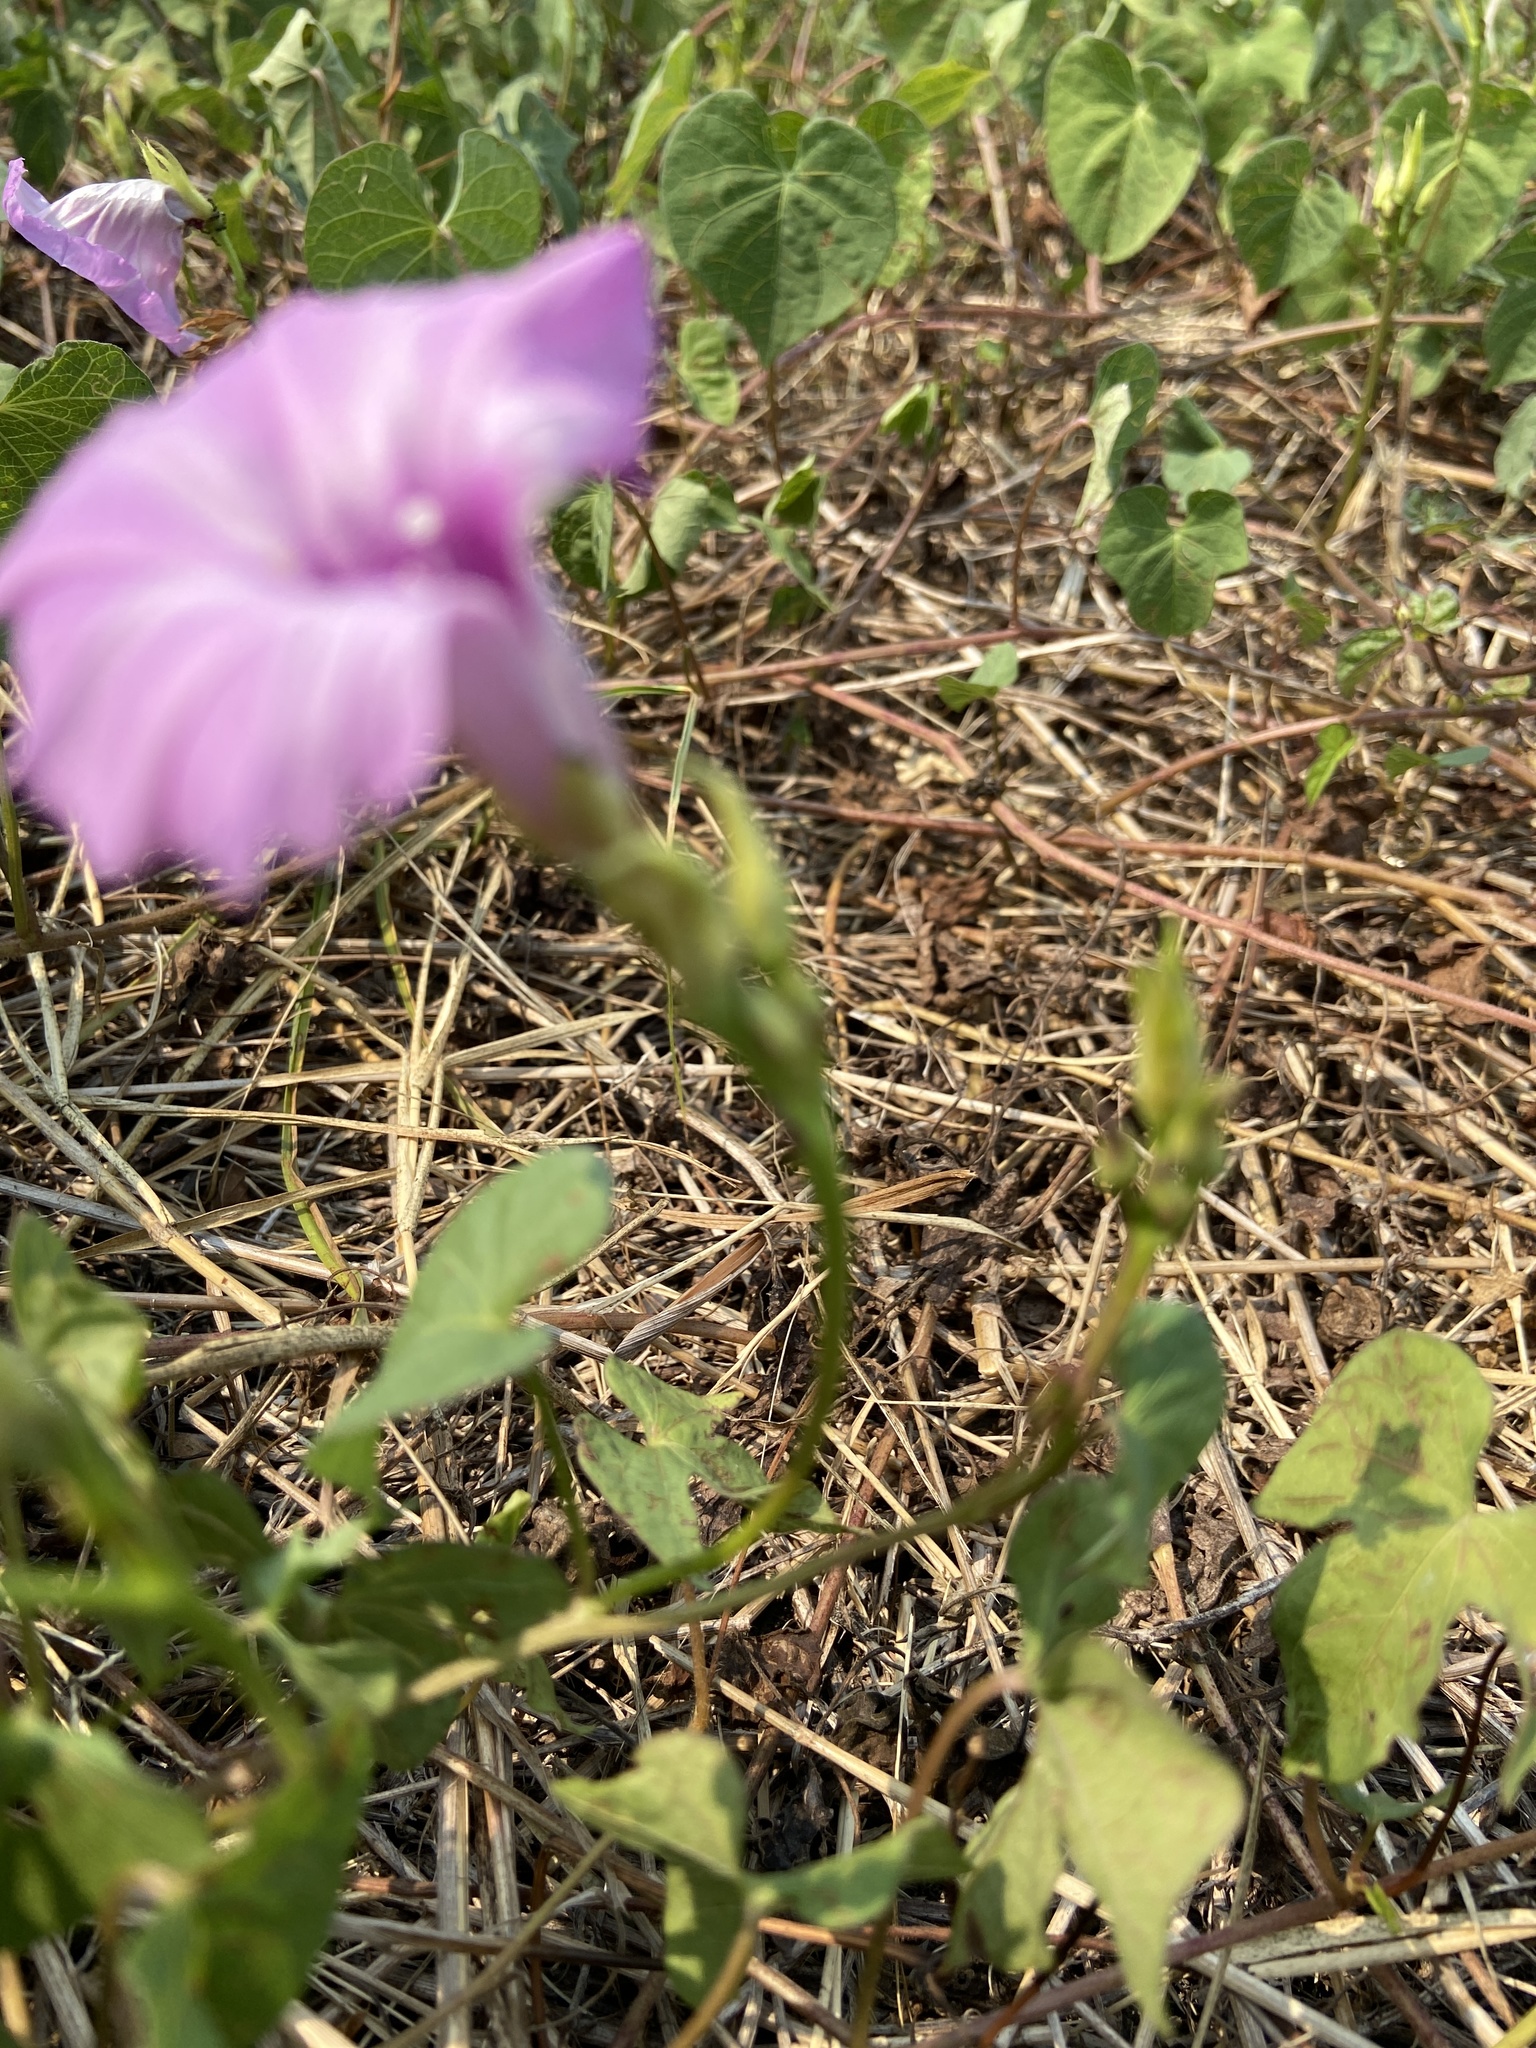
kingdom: Plantae
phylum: Tracheophyta
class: Magnoliopsida
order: Solanales
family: Convolvulaceae
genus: Ipomoea
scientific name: Ipomoea cordatotriloba
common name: Cotton morning glory
